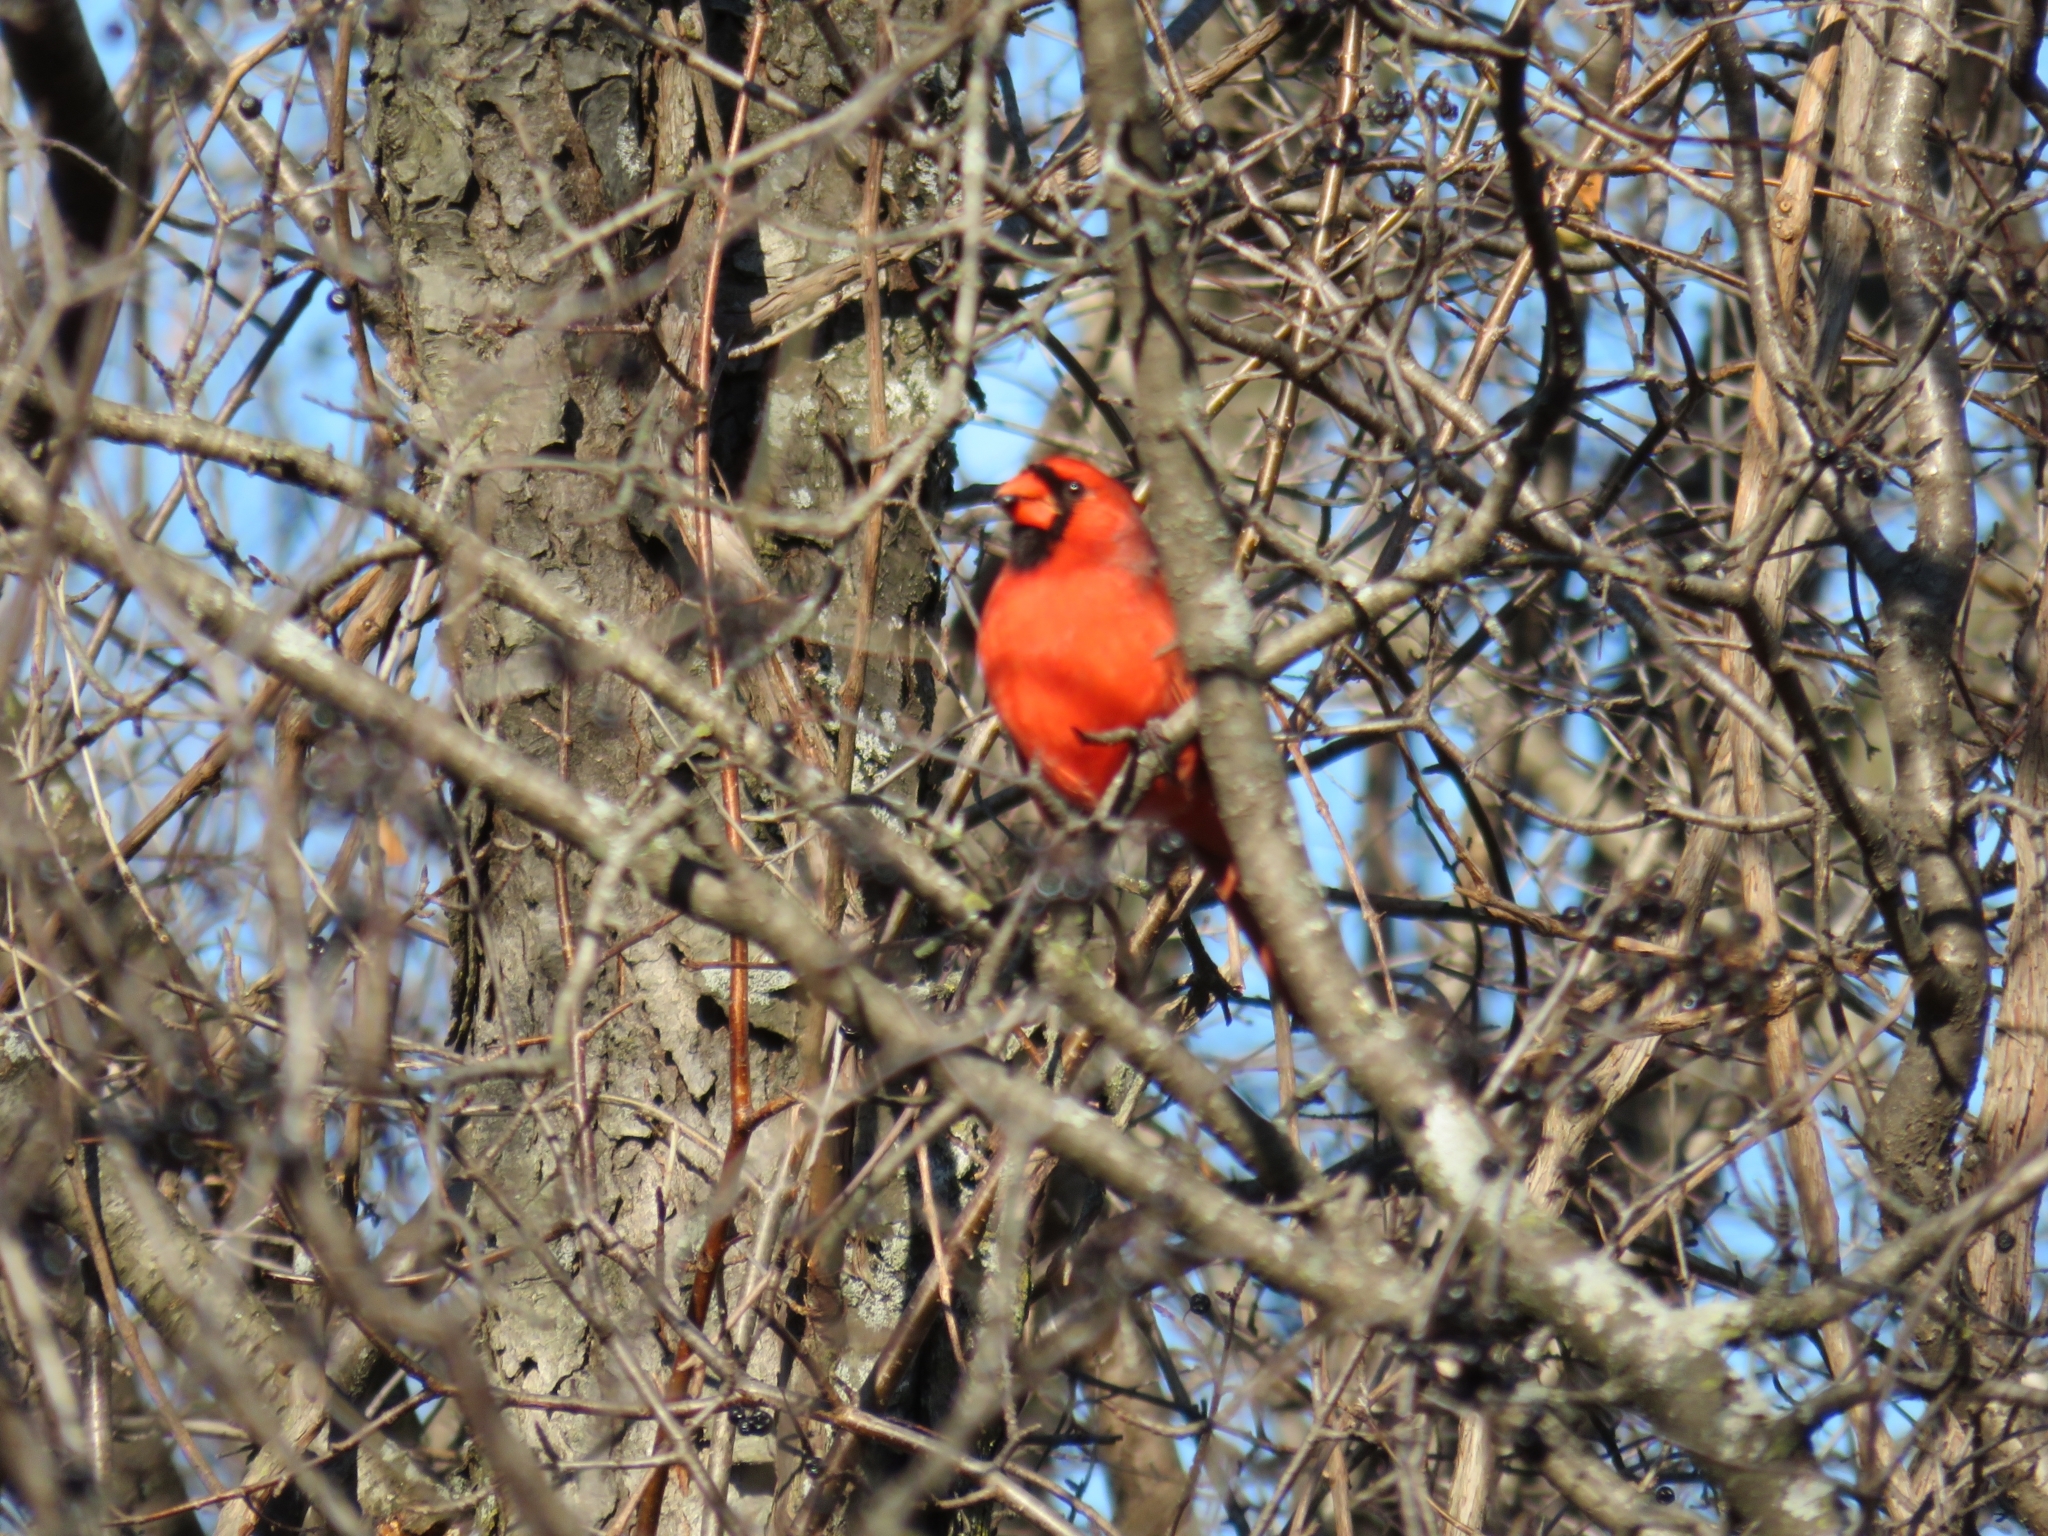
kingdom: Animalia
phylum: Chordata
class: Aves
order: Passeriformes
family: Cardinalidae
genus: Cardinalis
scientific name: Cardinalis cardinalis
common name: Northern cardinal
